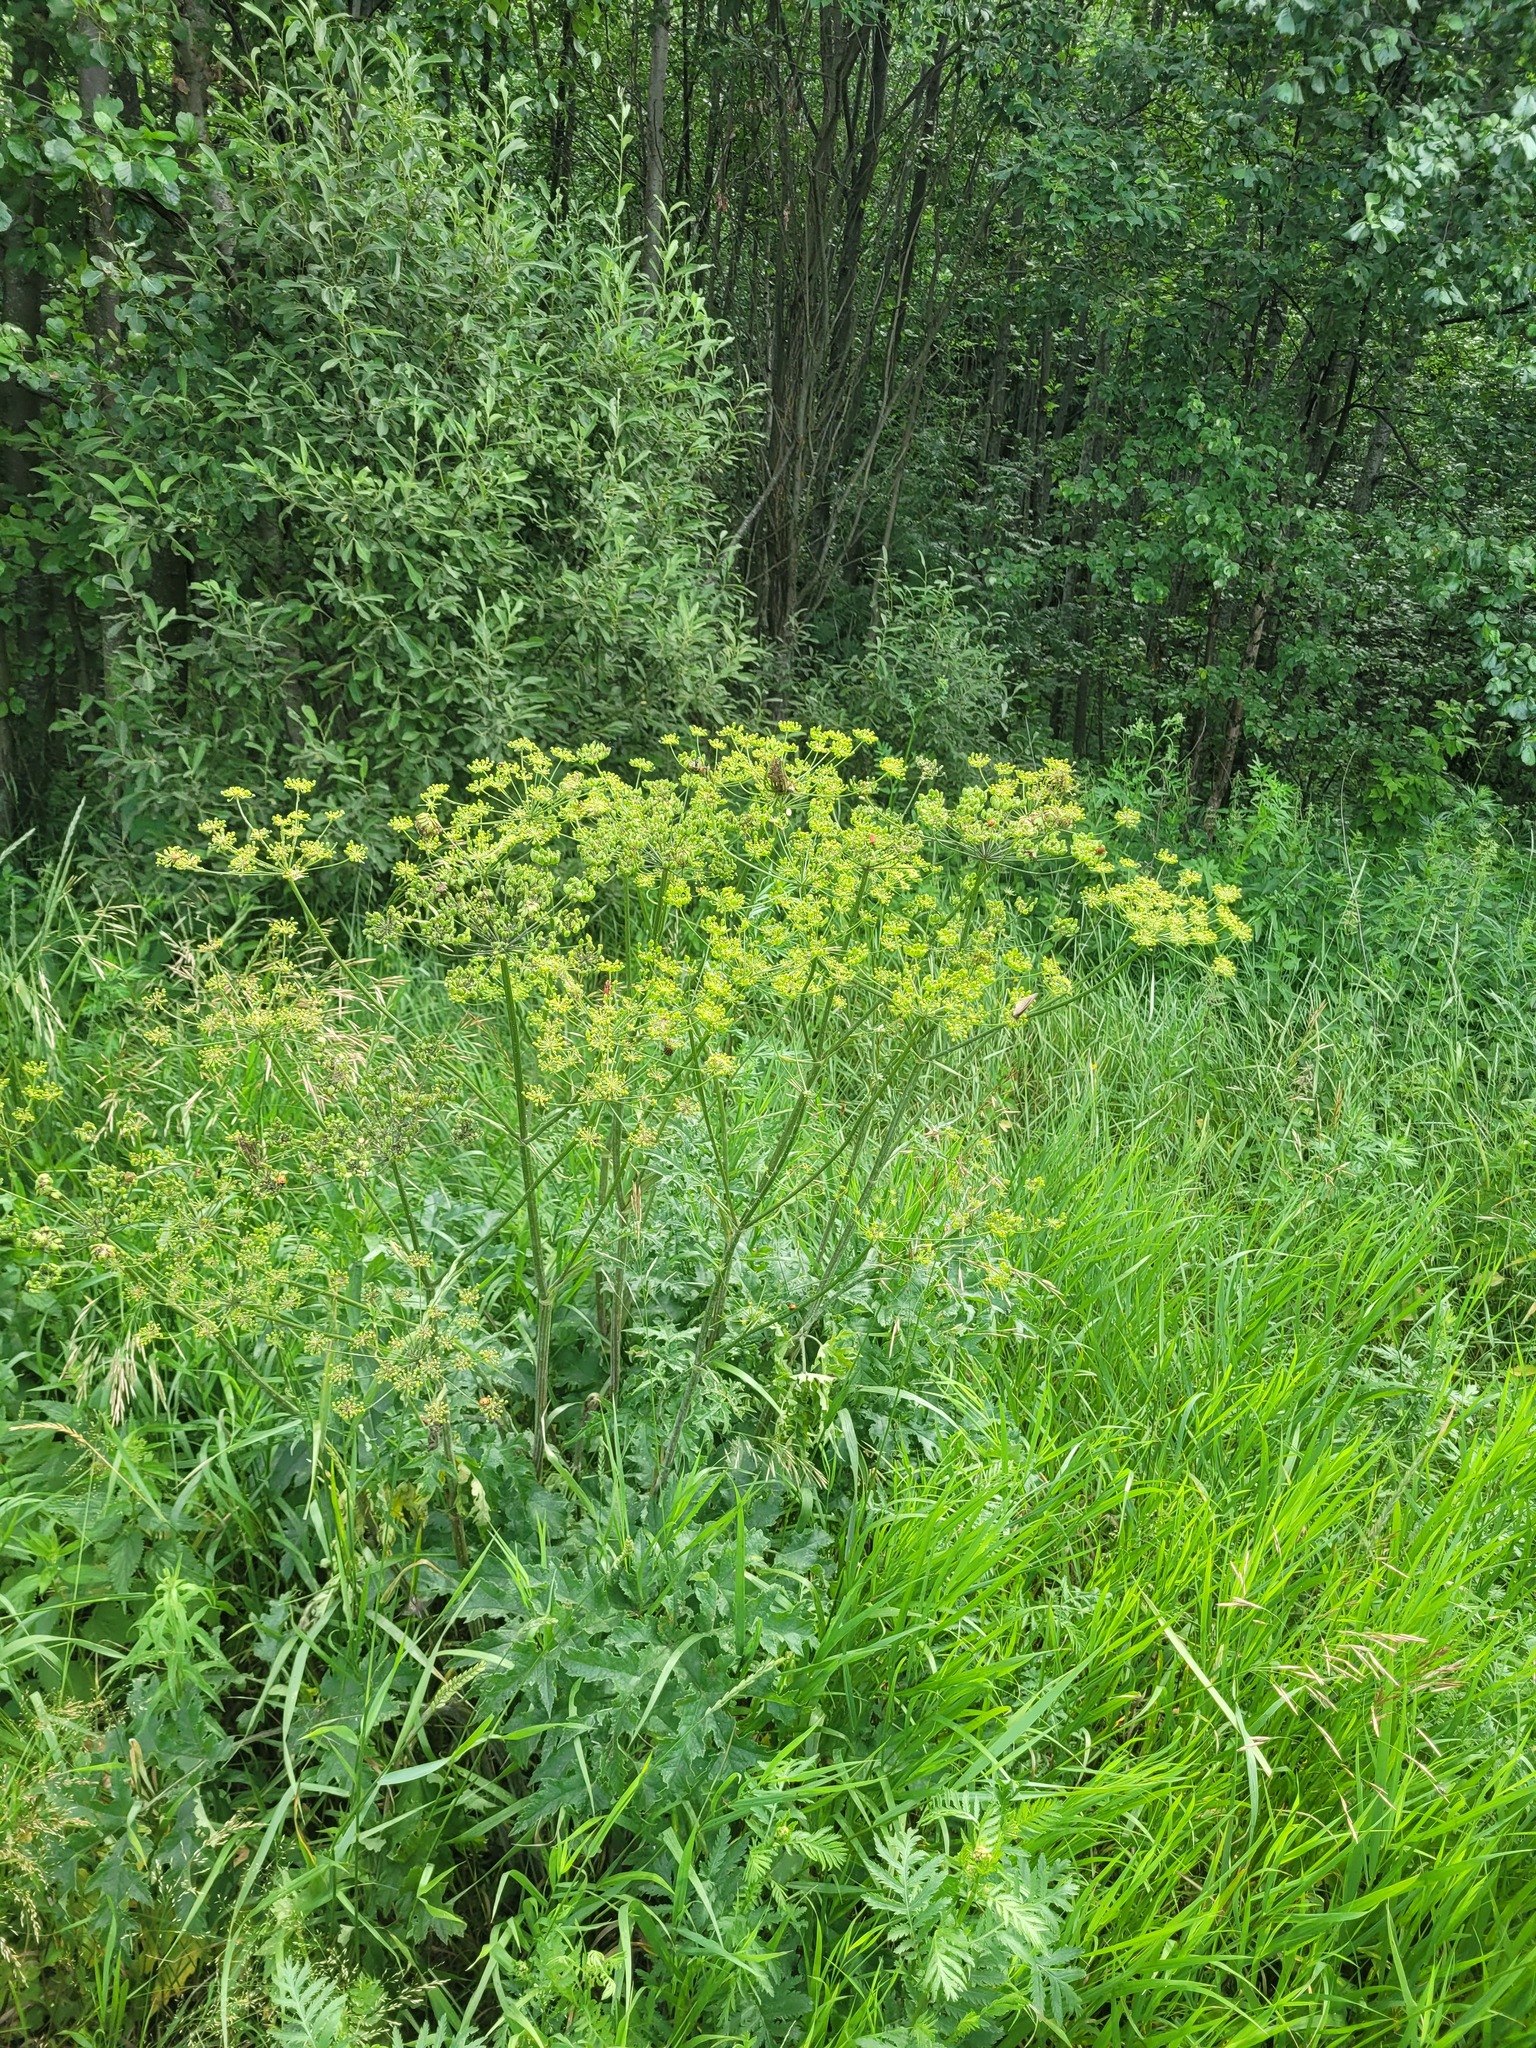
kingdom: Plantae
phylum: Tracheophyta
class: Magnoliopsida
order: Apiales
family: Apiaceae
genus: Heracleum
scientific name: Heracleum sphondylium
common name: Hogweed
